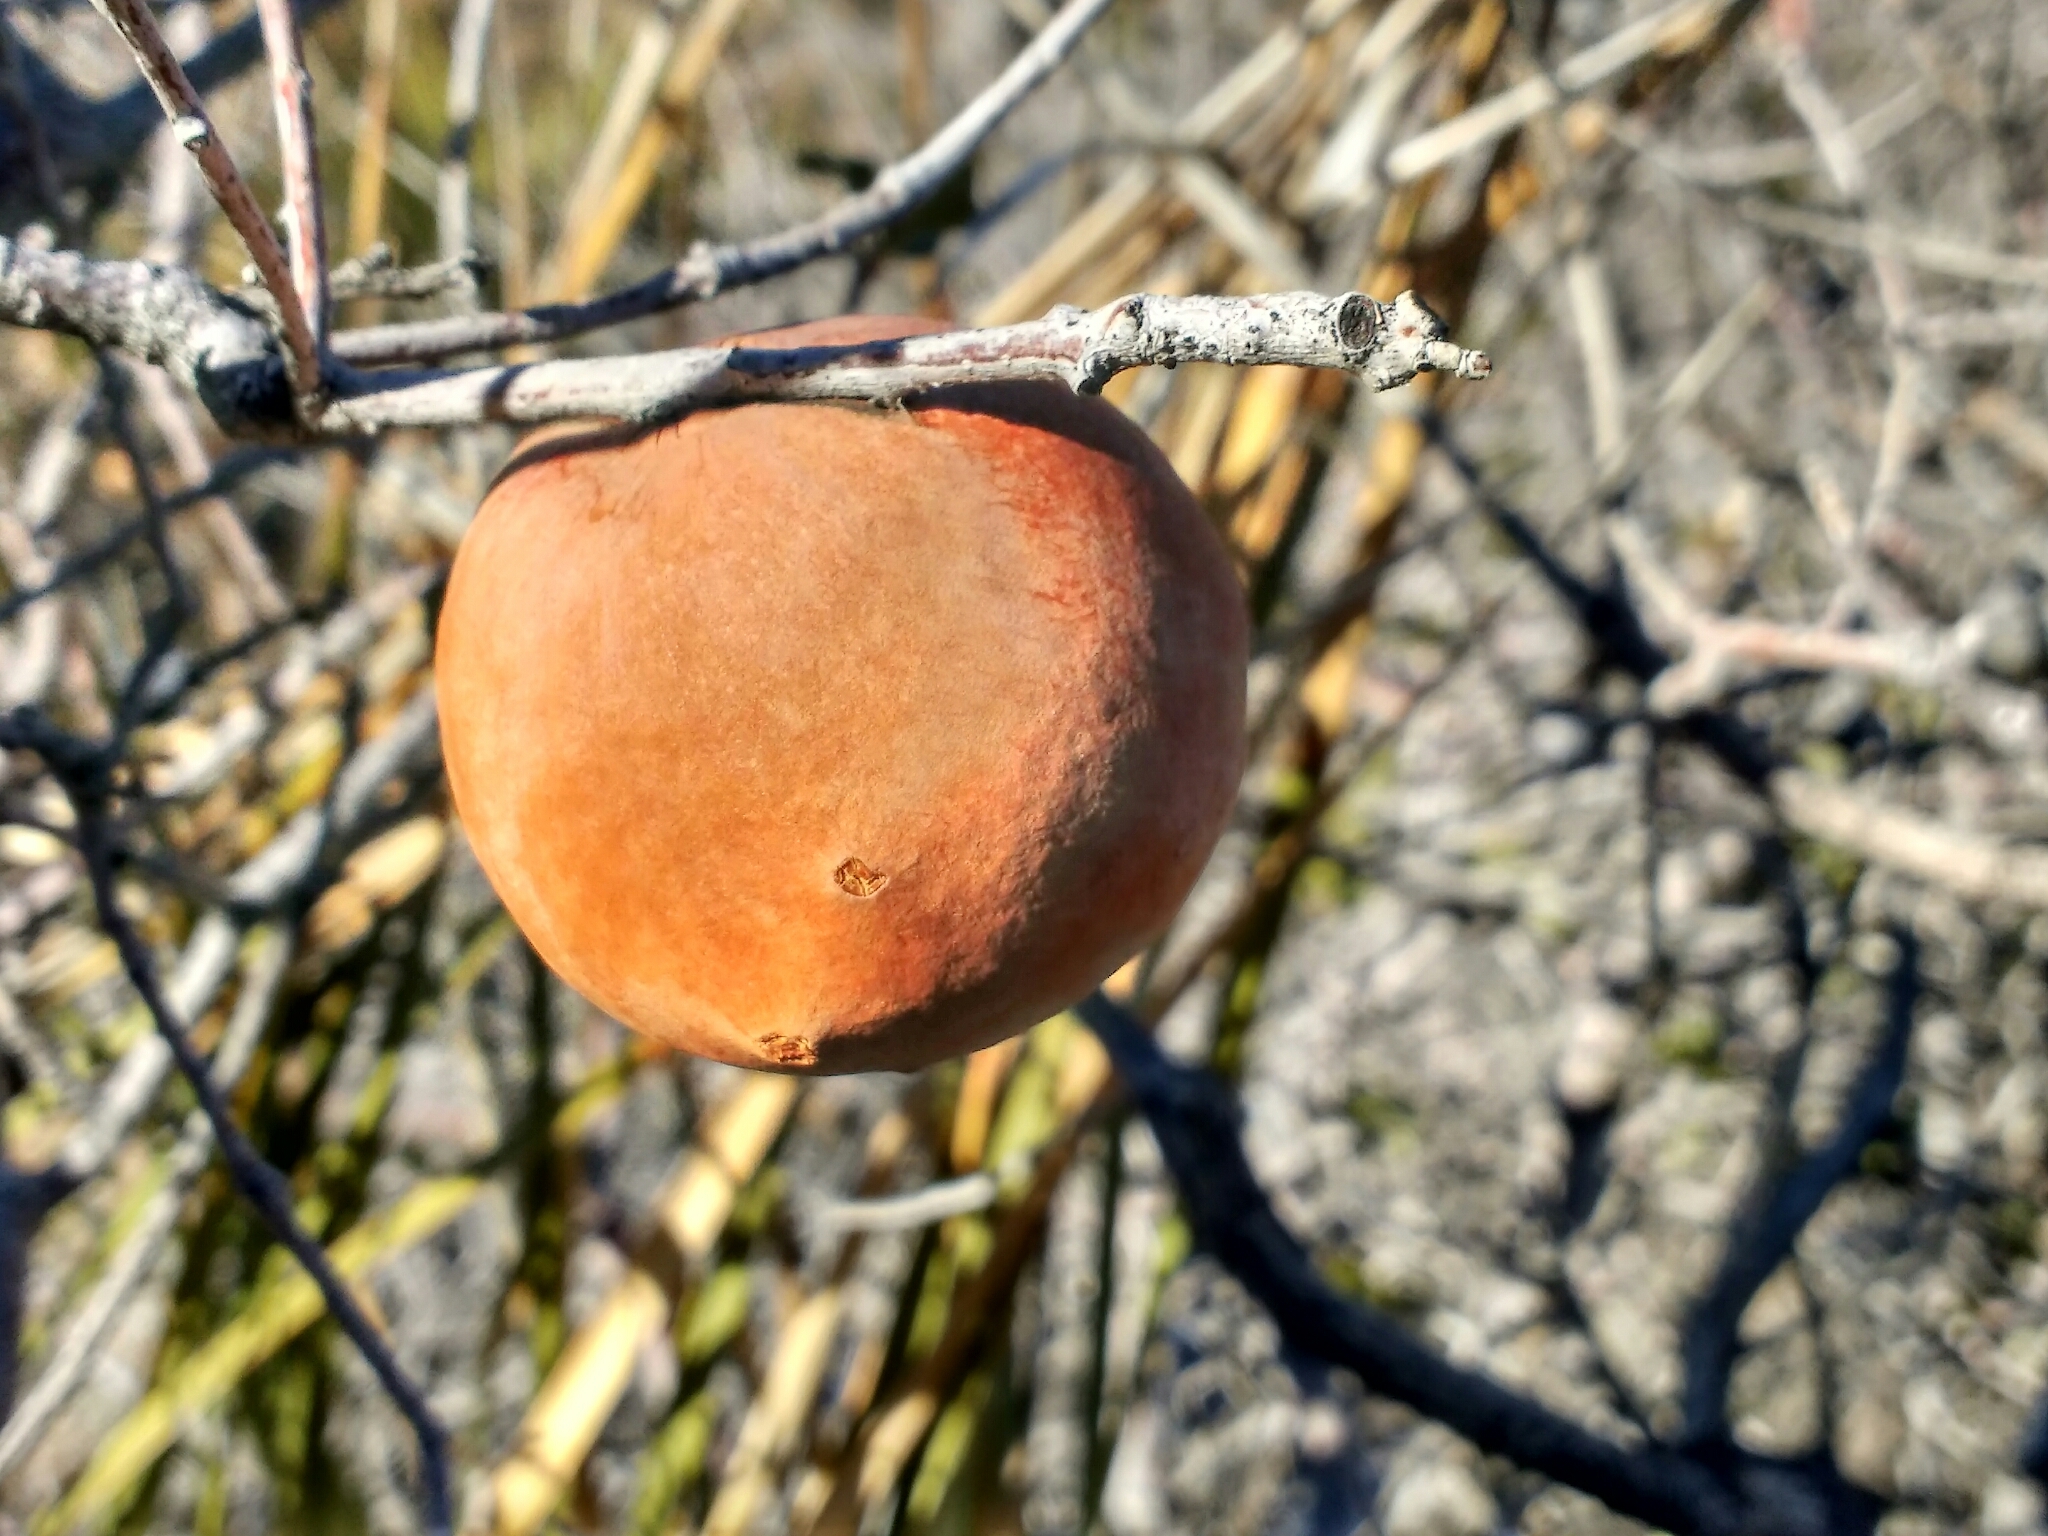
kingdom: Animalia
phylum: Arthropoda
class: Insecta
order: Hymenoptera
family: Cynipidae
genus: Andricus
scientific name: Andricus quercuscalifornicus
